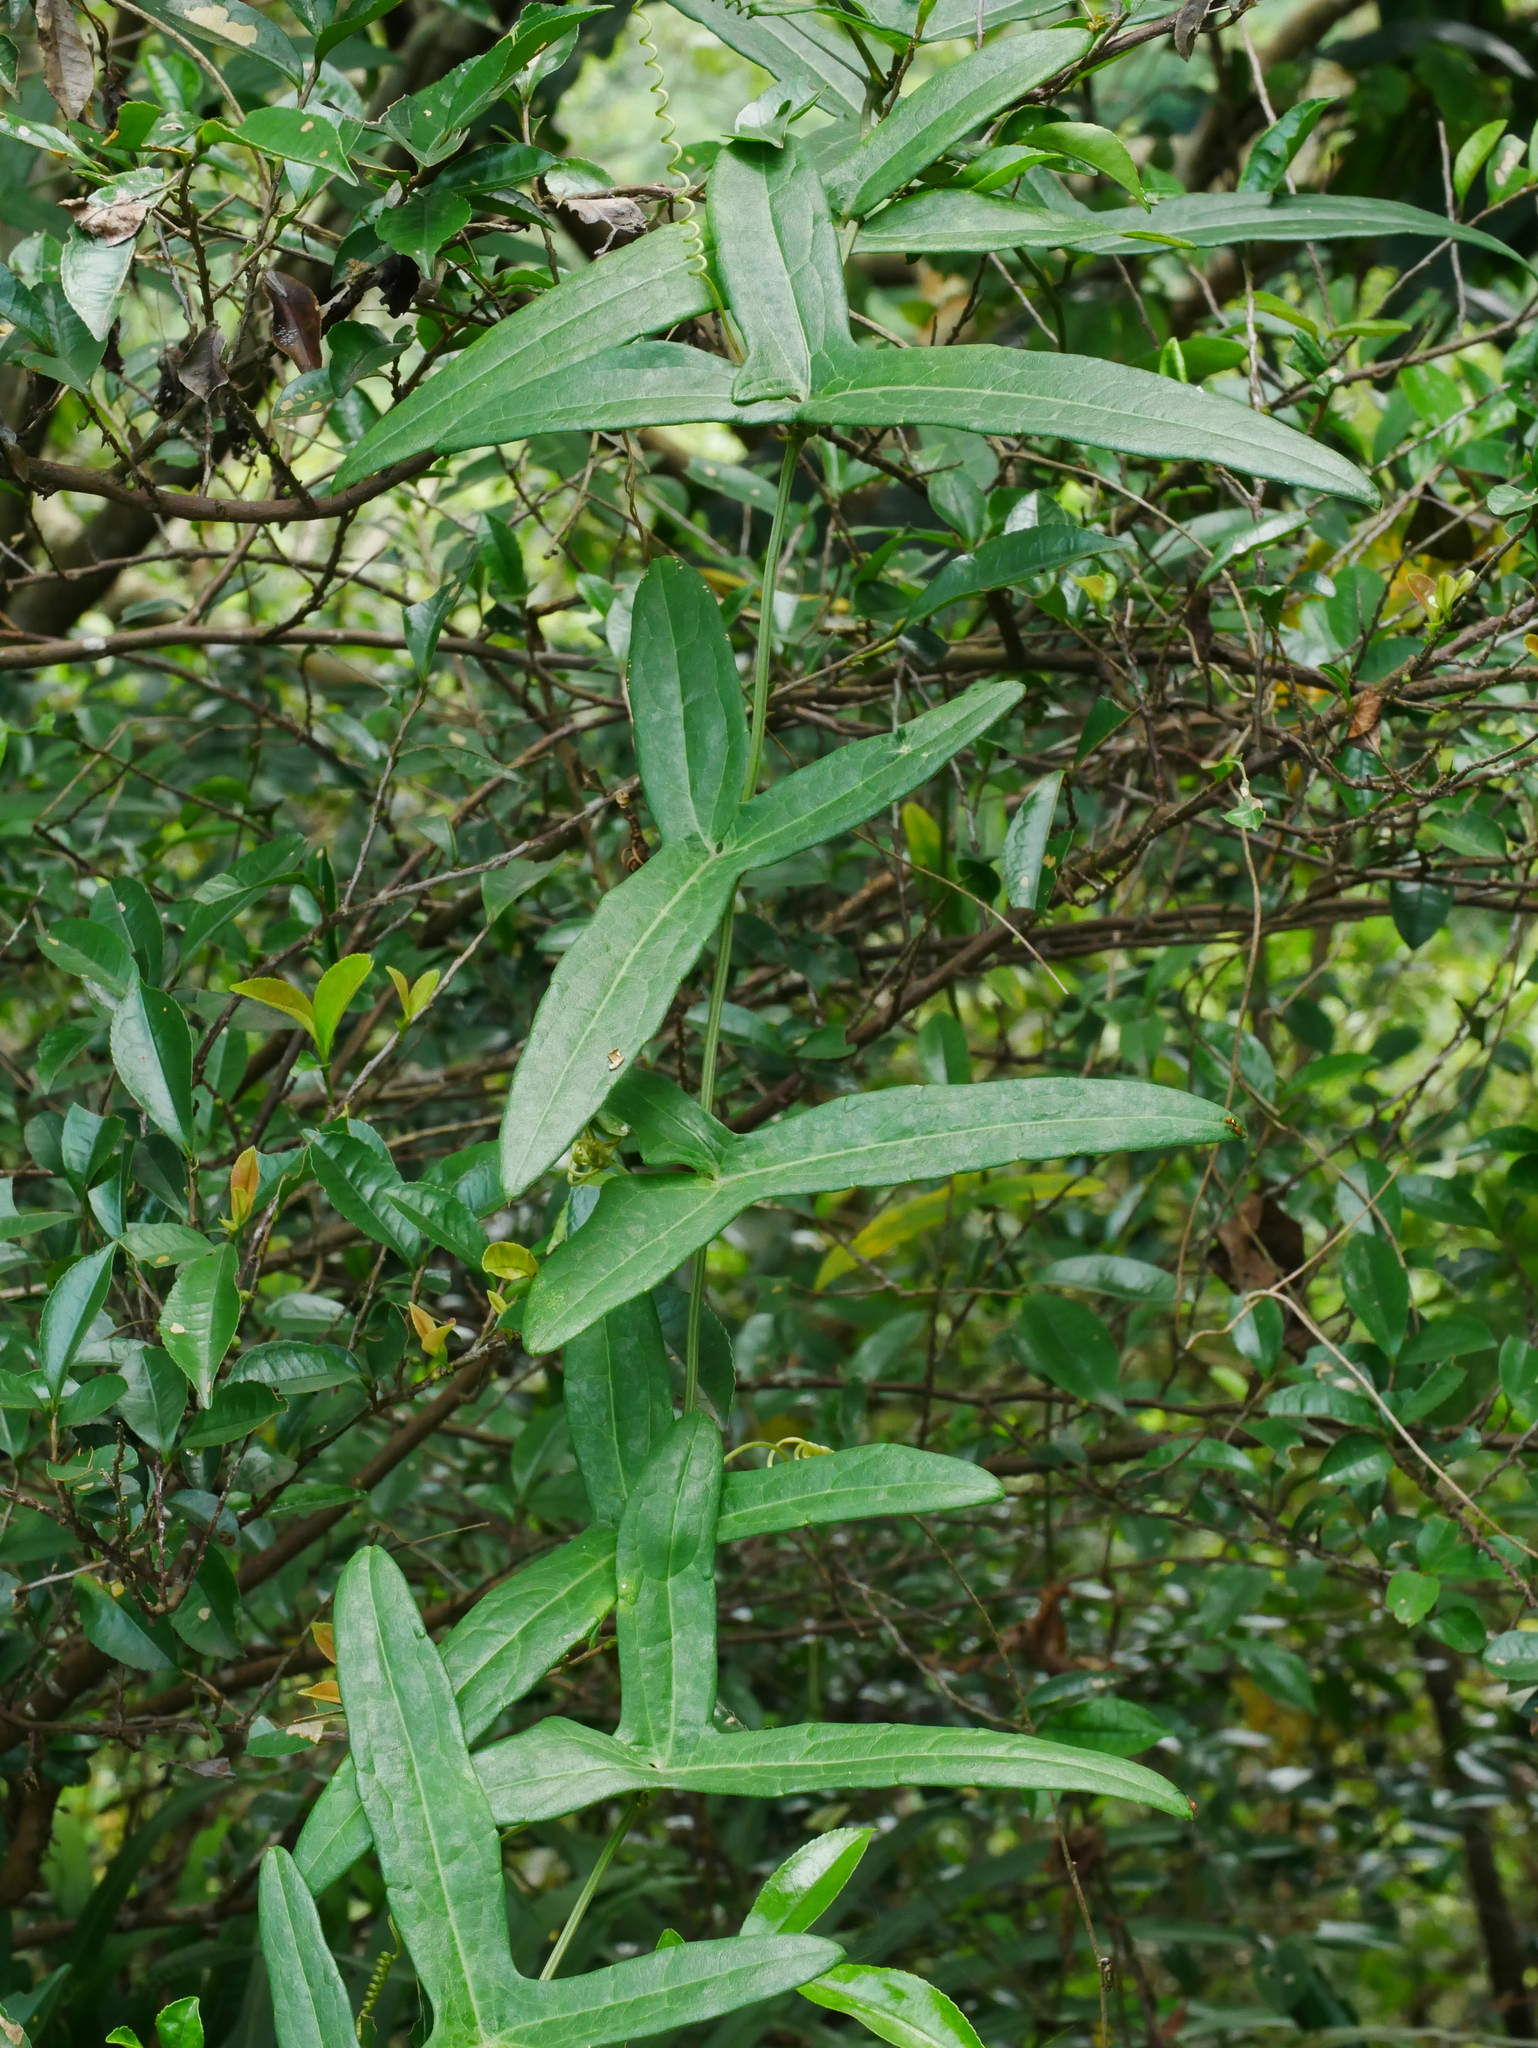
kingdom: Plantae
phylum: Tracheophyta
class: Magnoliopsida
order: Cucurbitales
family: Cucurbitaceae
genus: Solena
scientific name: Solena amplexicaulis
